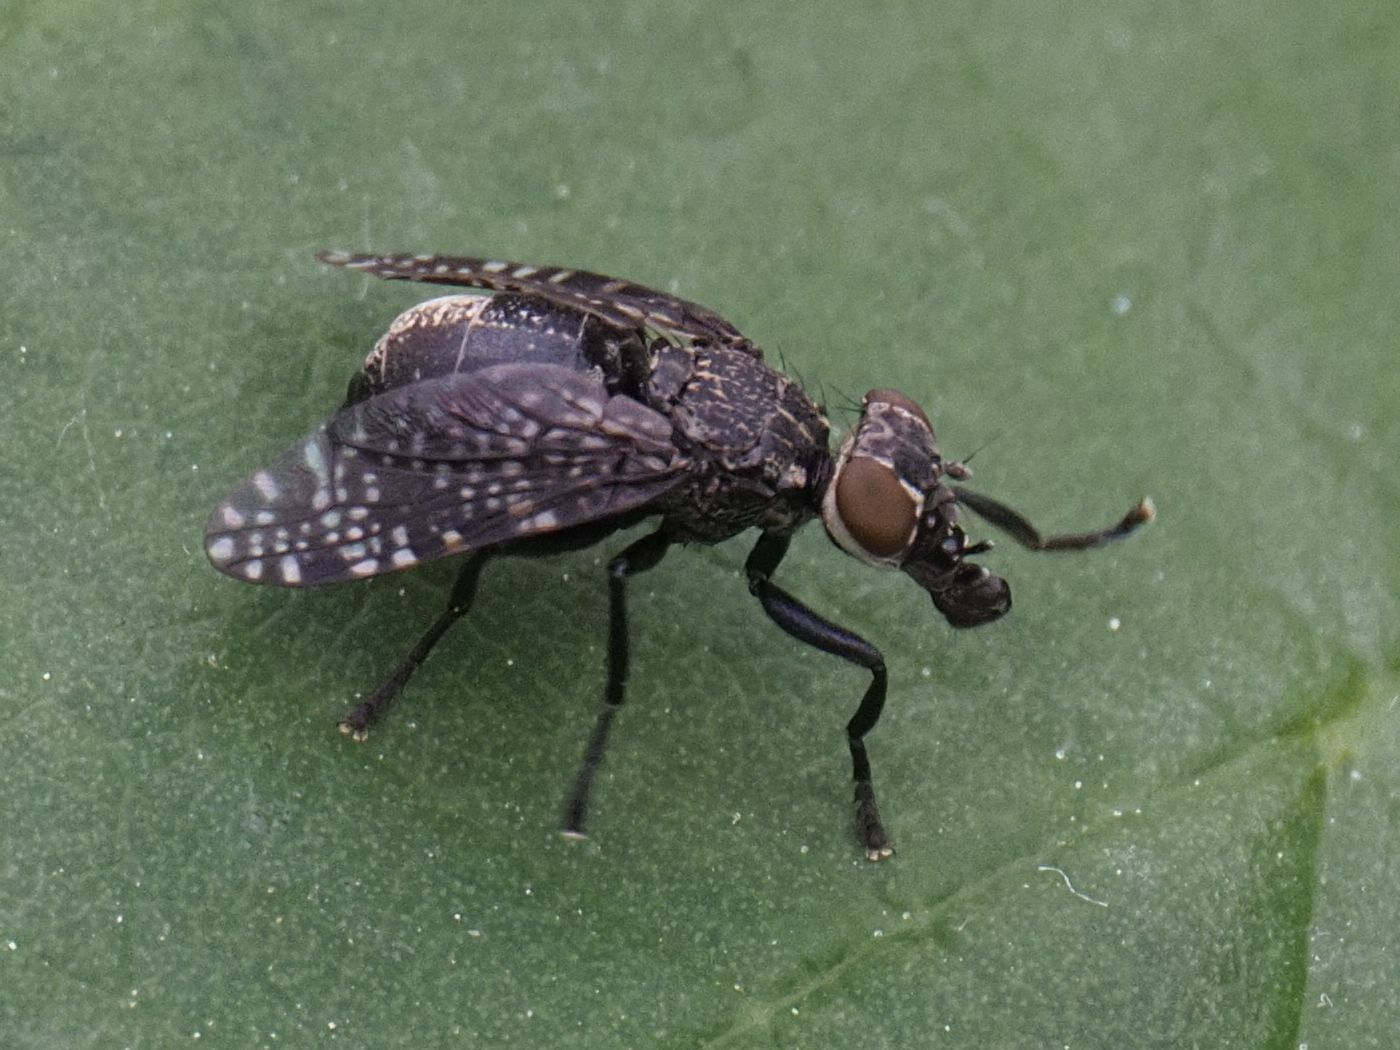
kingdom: Animalia
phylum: Arthropoda
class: Insecta
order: Diptera
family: Platystomatidae
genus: Platystoma
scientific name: Platystoma seminationis
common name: Fly
